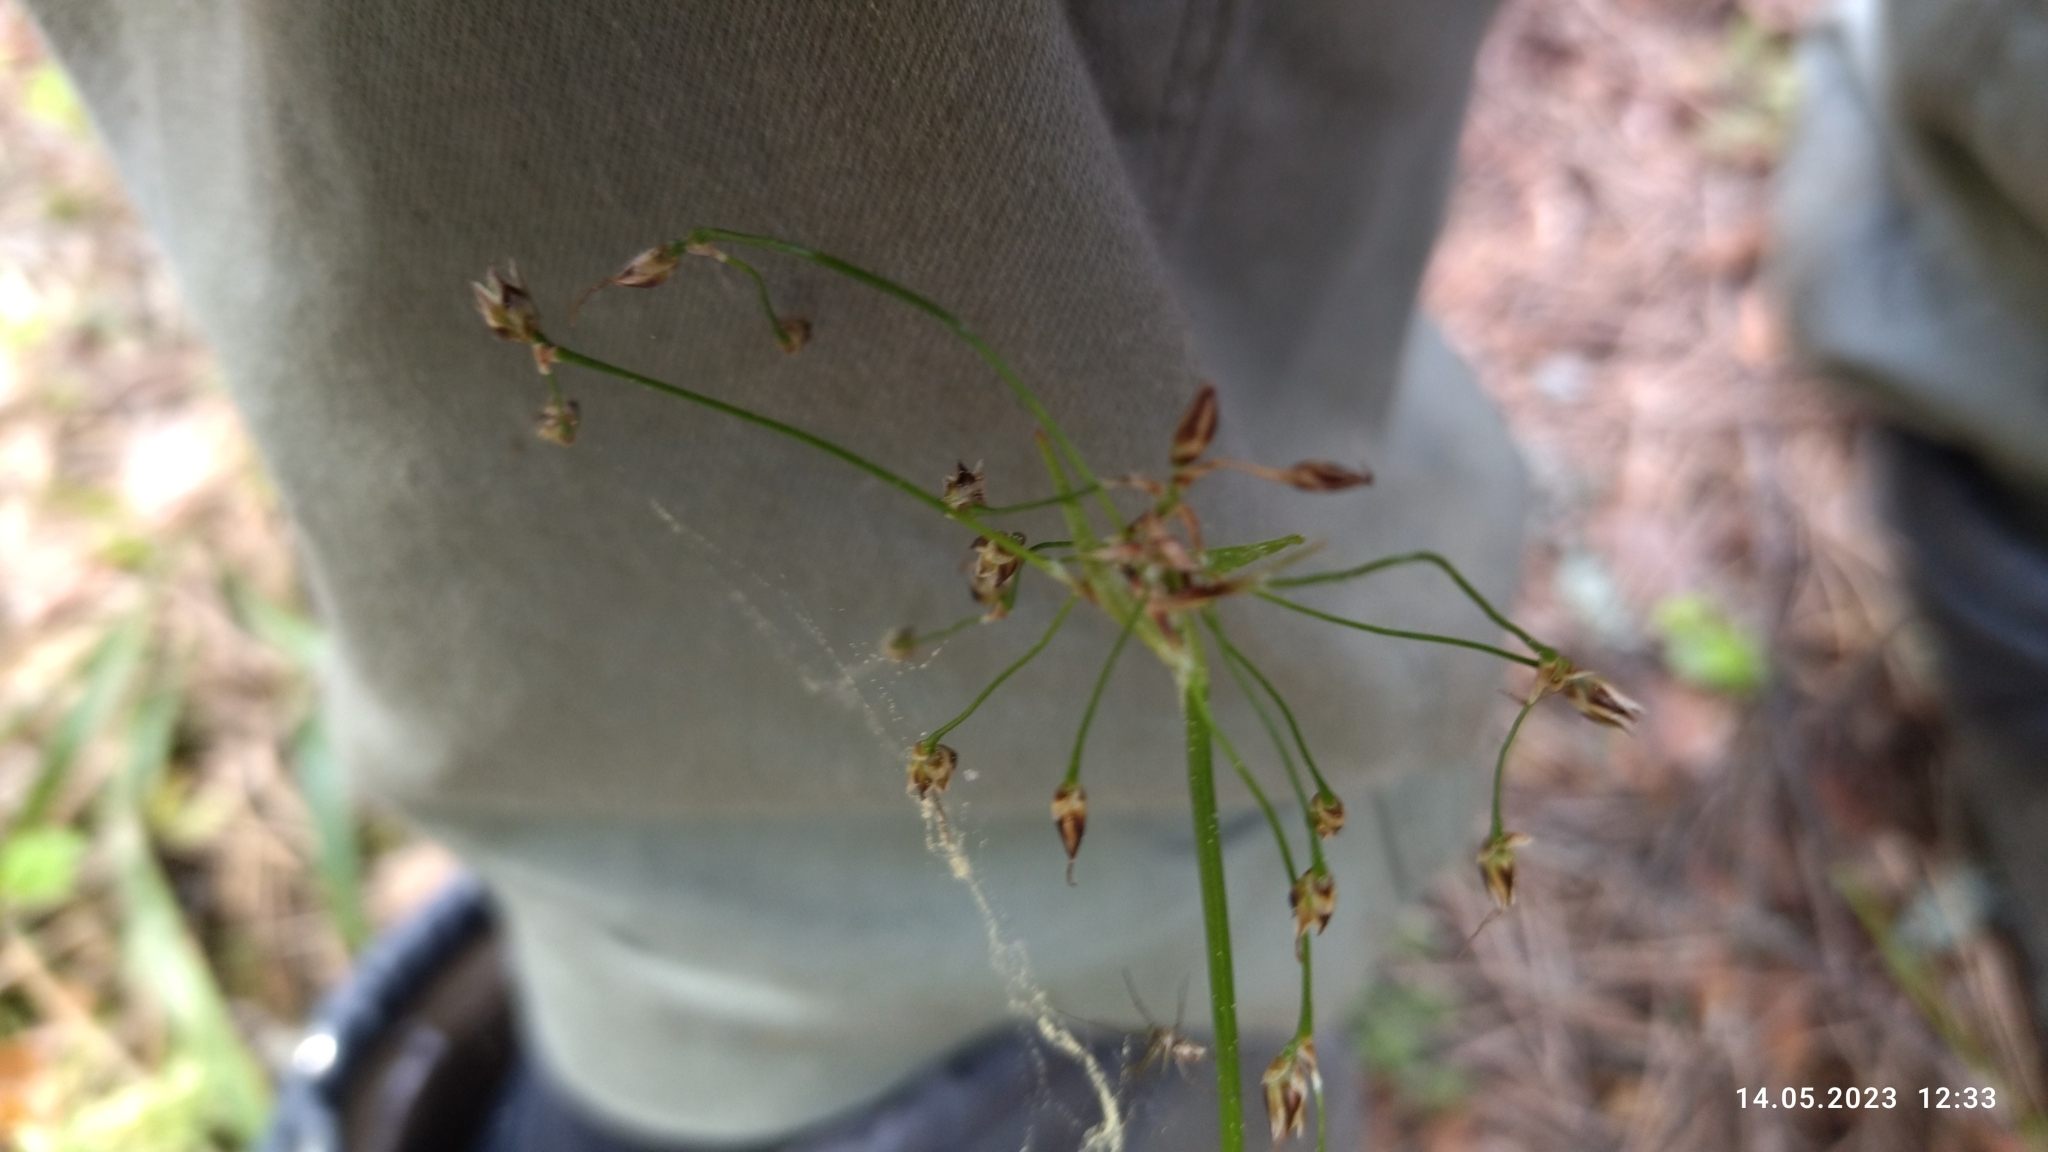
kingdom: Plantae
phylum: Tracheophyta
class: Liliopsida
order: Poales
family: Juncaceae
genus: Luzula
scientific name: Luzula pilosa
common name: Hairy wood-rush
